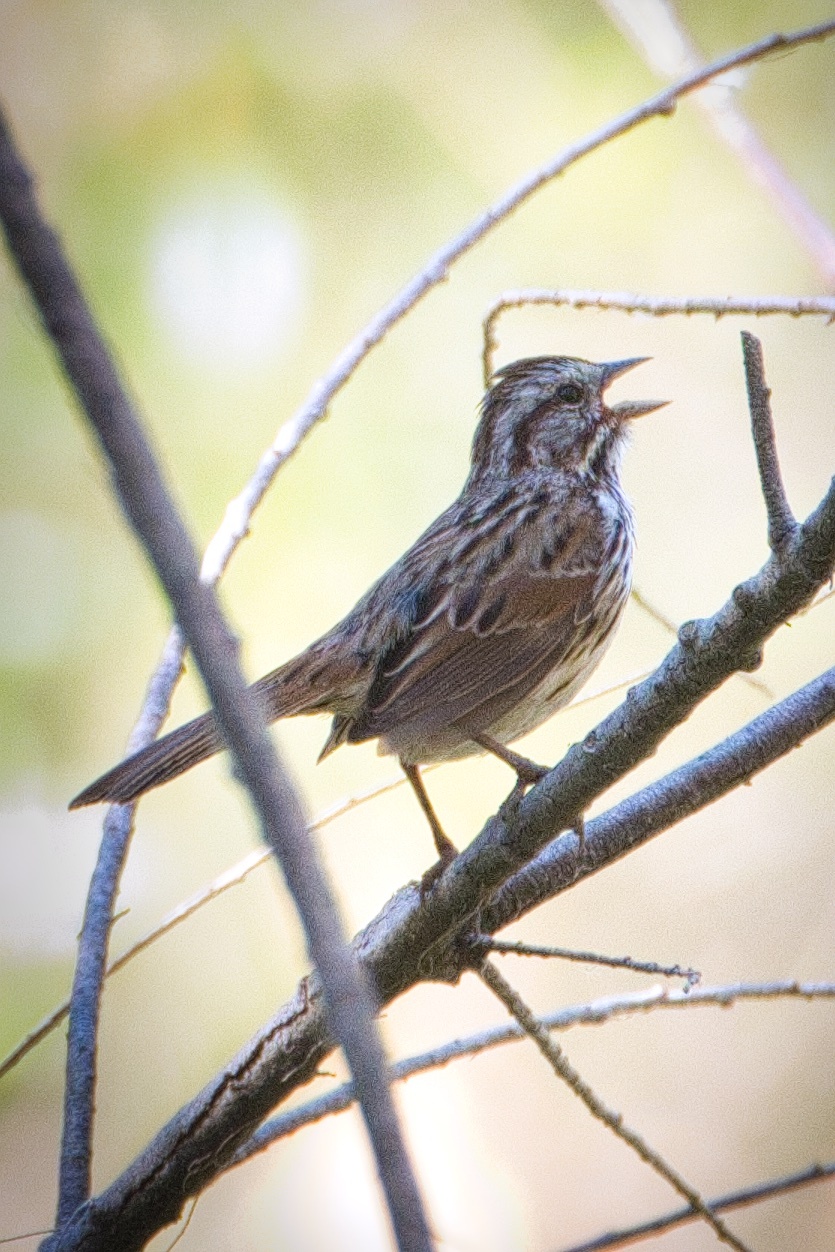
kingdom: Animalia
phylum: Chordata
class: Aves
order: Passeriformes
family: Passerellidae
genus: Melospiza
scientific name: Melospiza melodia
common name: Song sparrow
